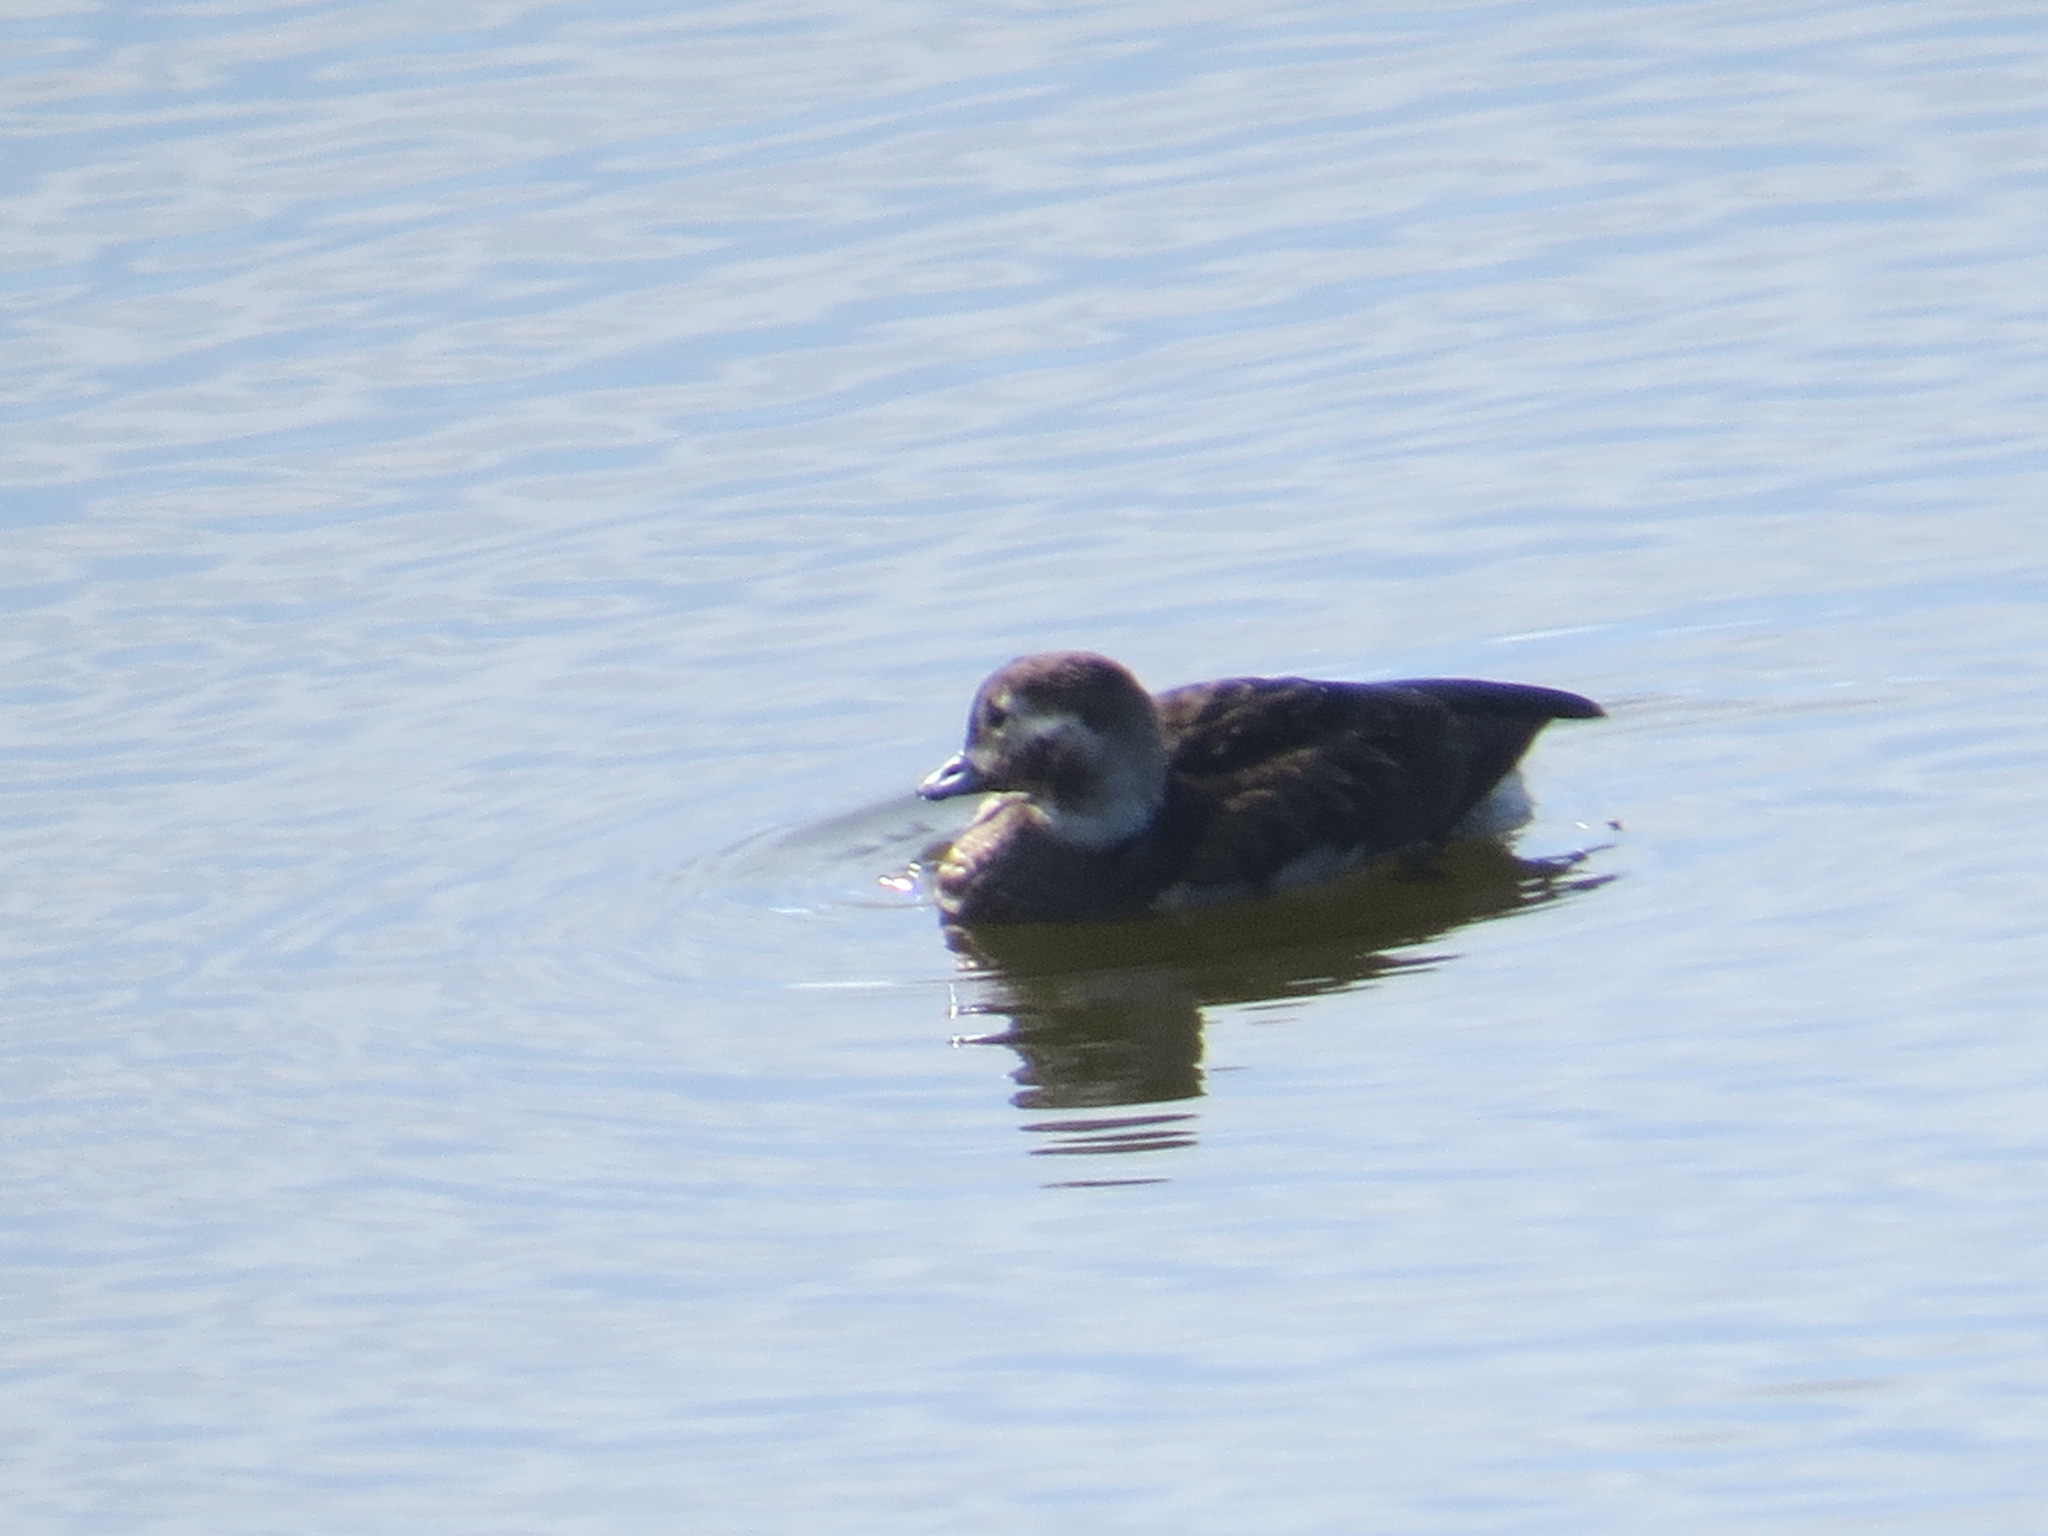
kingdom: Animalia
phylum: Chordata
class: Aves
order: Anseriformes
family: Anatidae
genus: Clangula
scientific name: Clangula hyemalis
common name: Long-tailed duck
